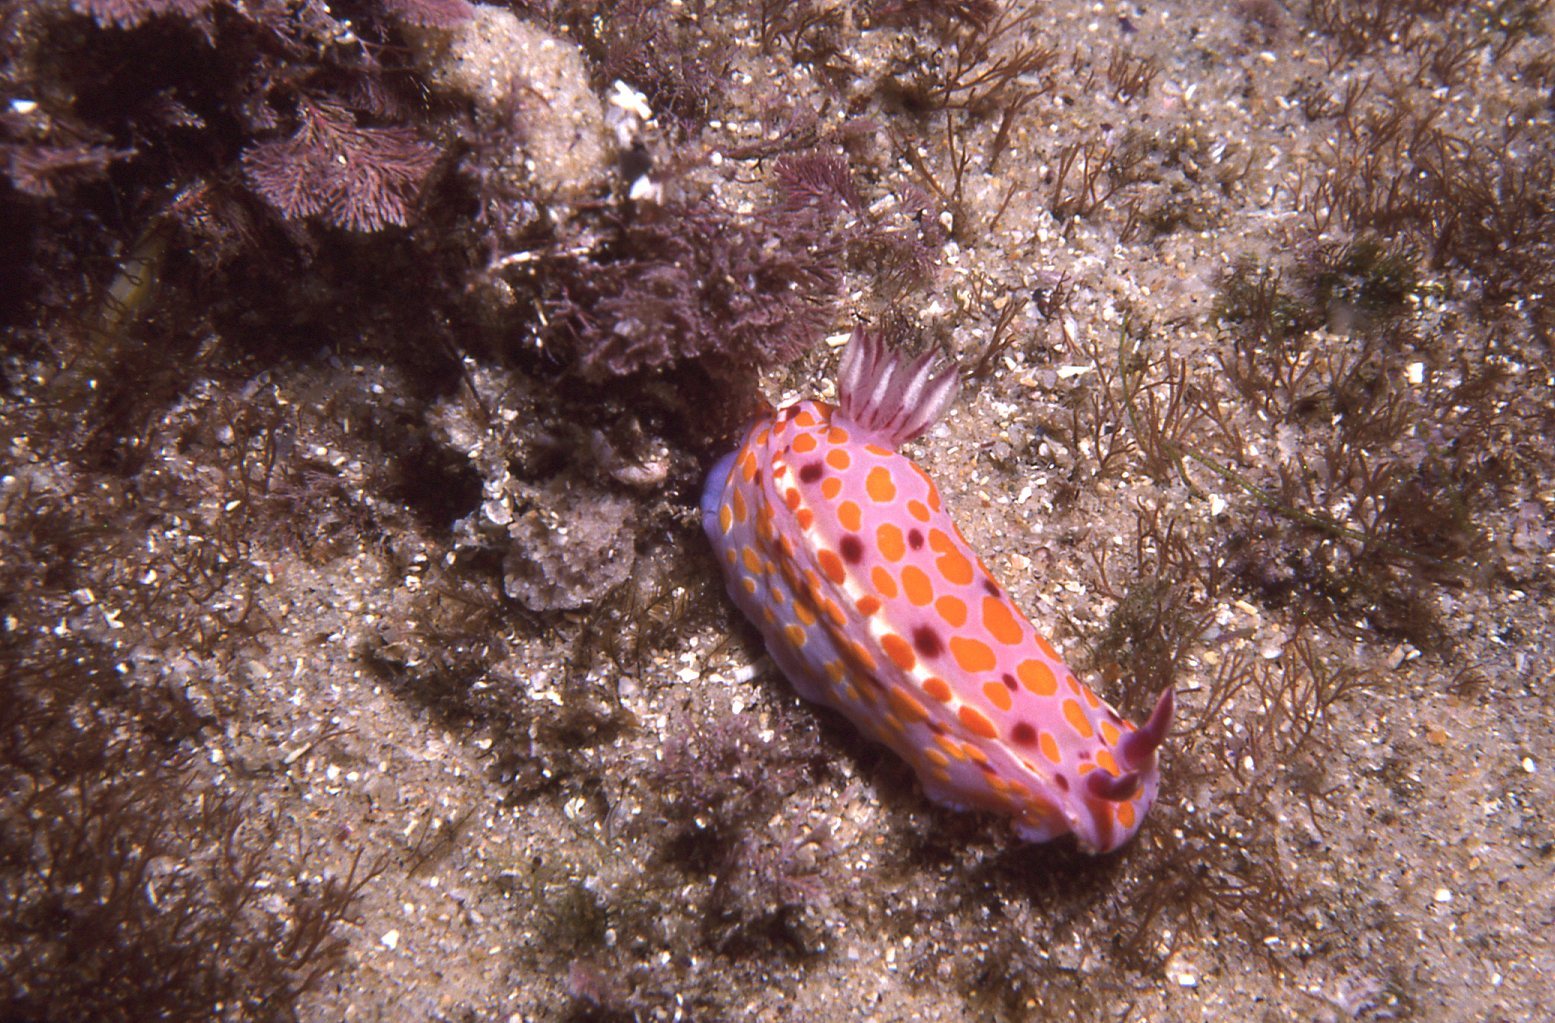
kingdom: Animalia
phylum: Mollusca
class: Gastropoda
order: Nudibranchia
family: Chromodorididae
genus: Ceratosoma
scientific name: Ceratosoma amoenum
